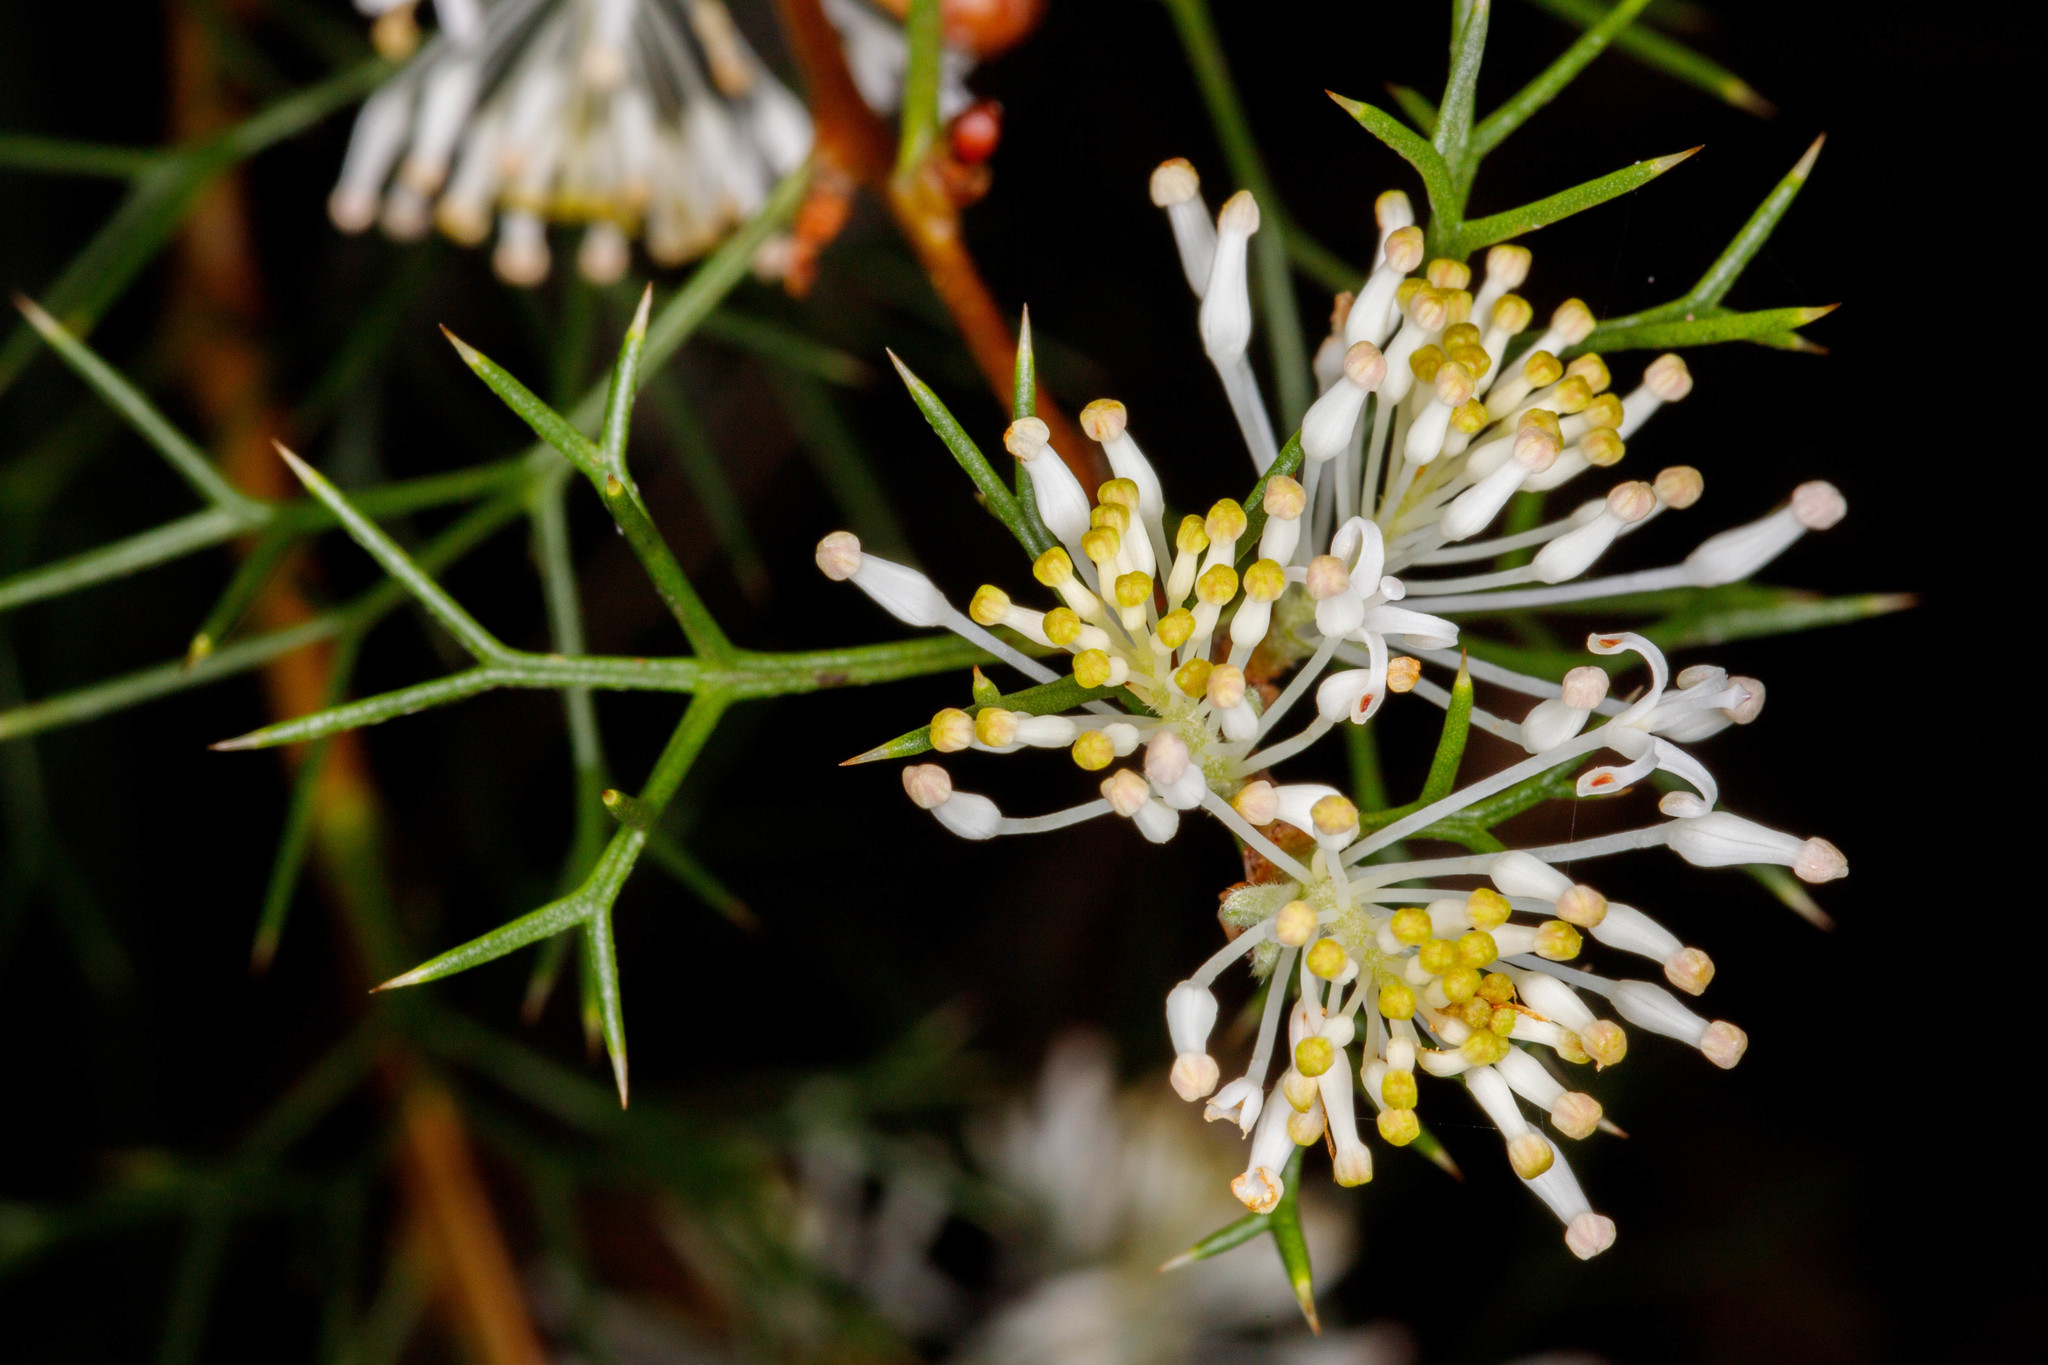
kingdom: Plantae
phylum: Tracheophyta
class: Magnoliopsida
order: Proteales
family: Proteaceae
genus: Hakea
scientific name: Hakea lissocarpha
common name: Honey bush
